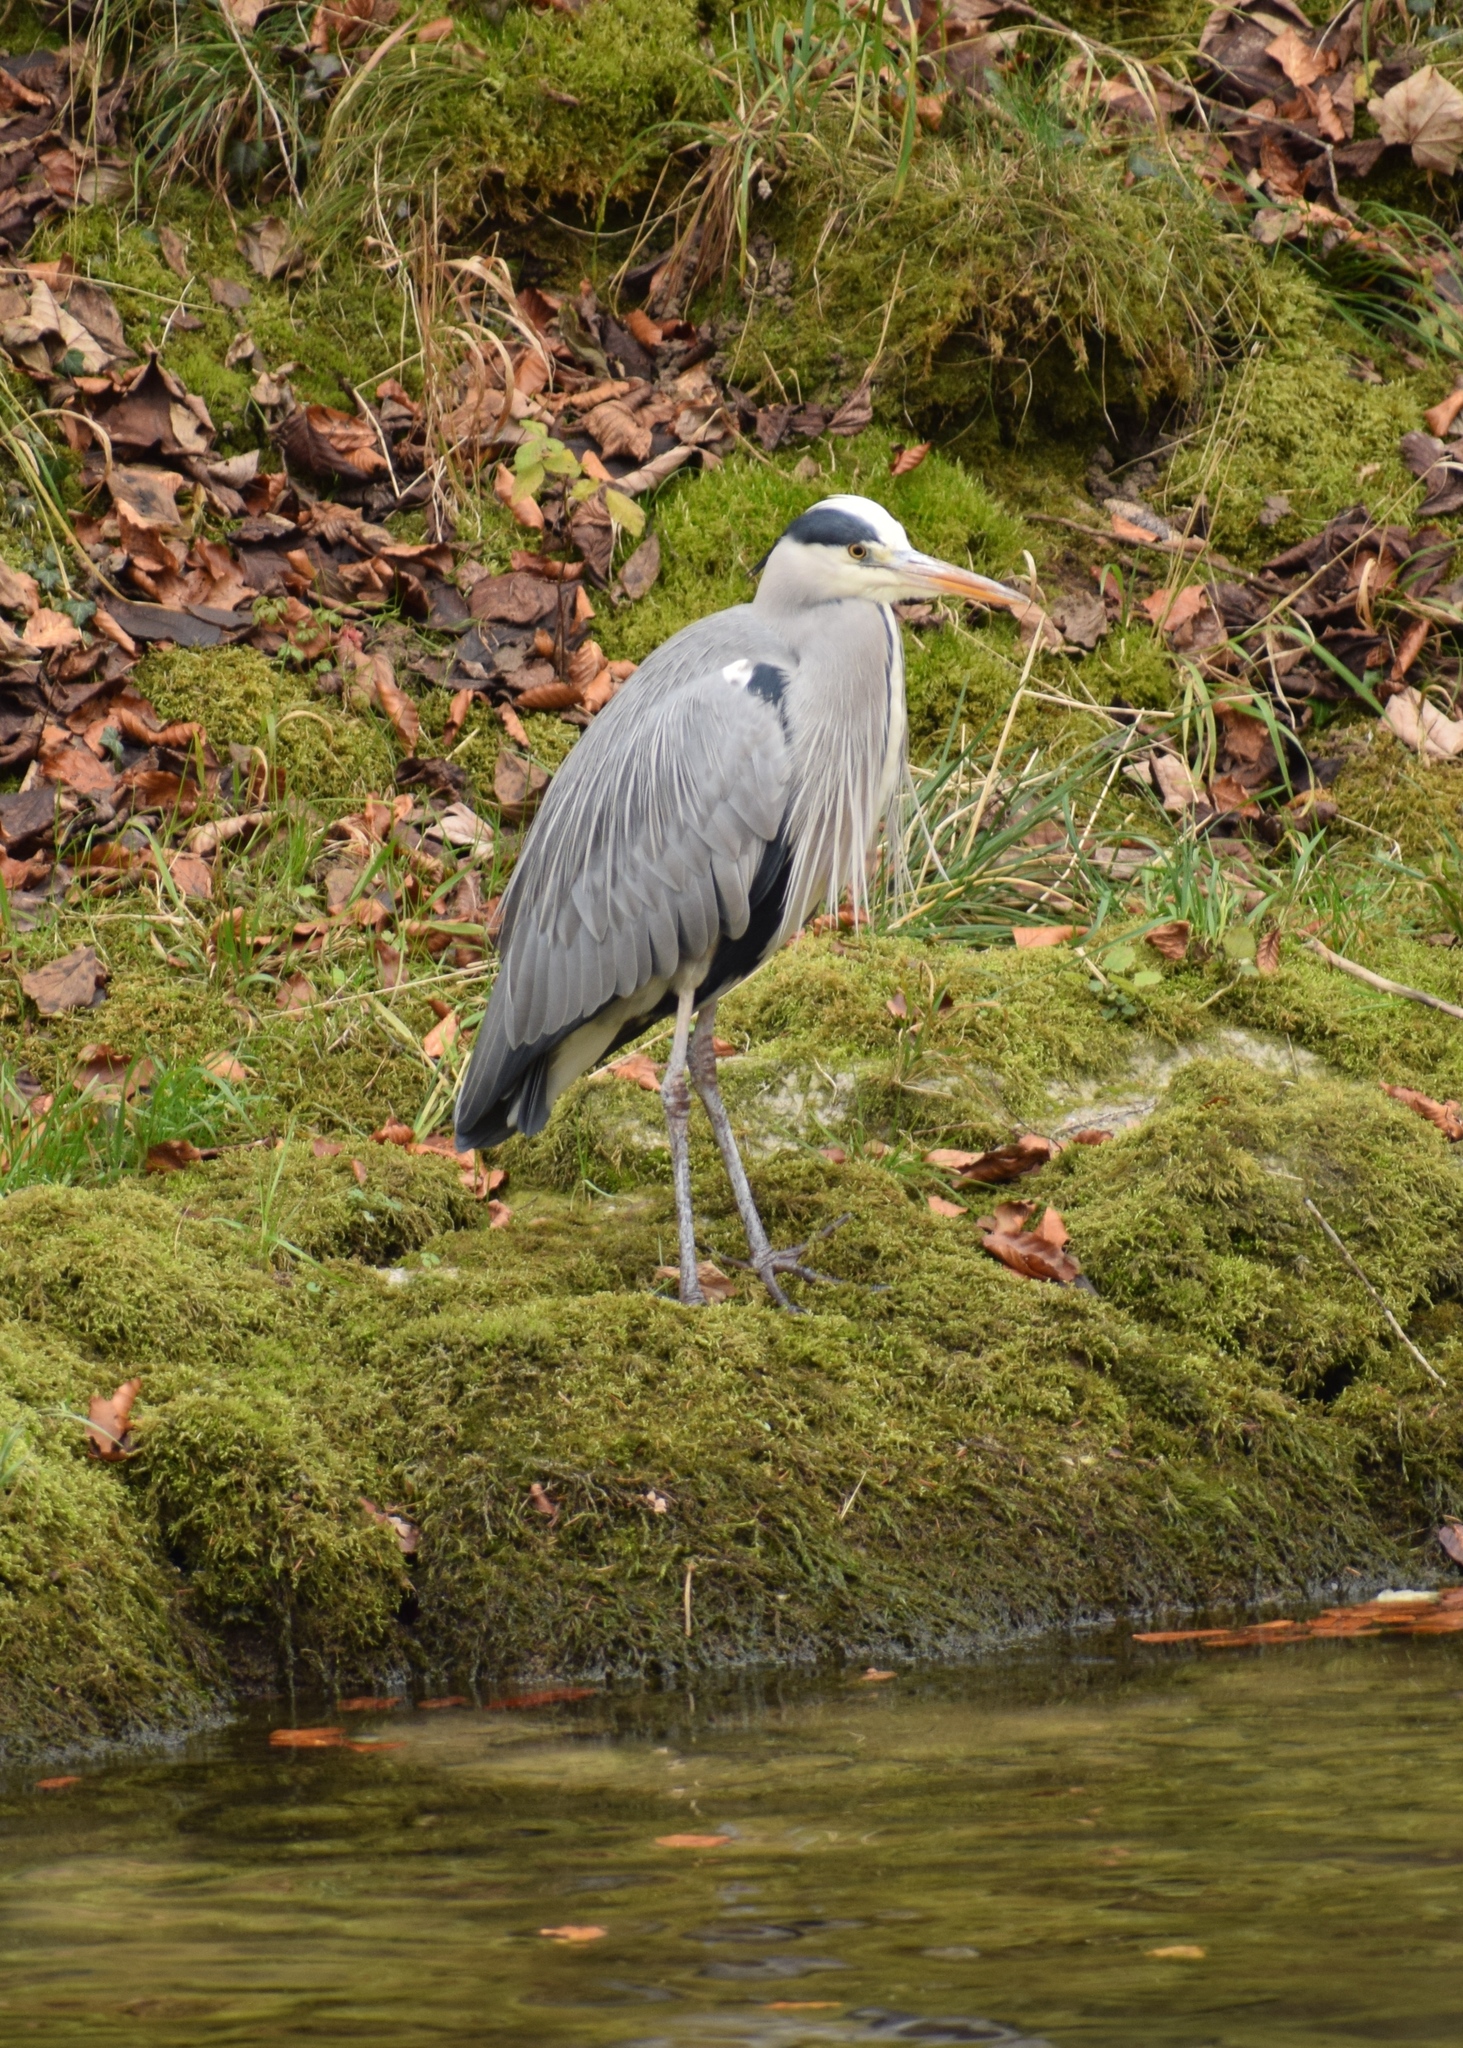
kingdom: Animalia
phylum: Chordata
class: Aves
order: Pelecaniformes
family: Ardeidae
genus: Ardea
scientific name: Ardea cinerea
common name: Grey heron
